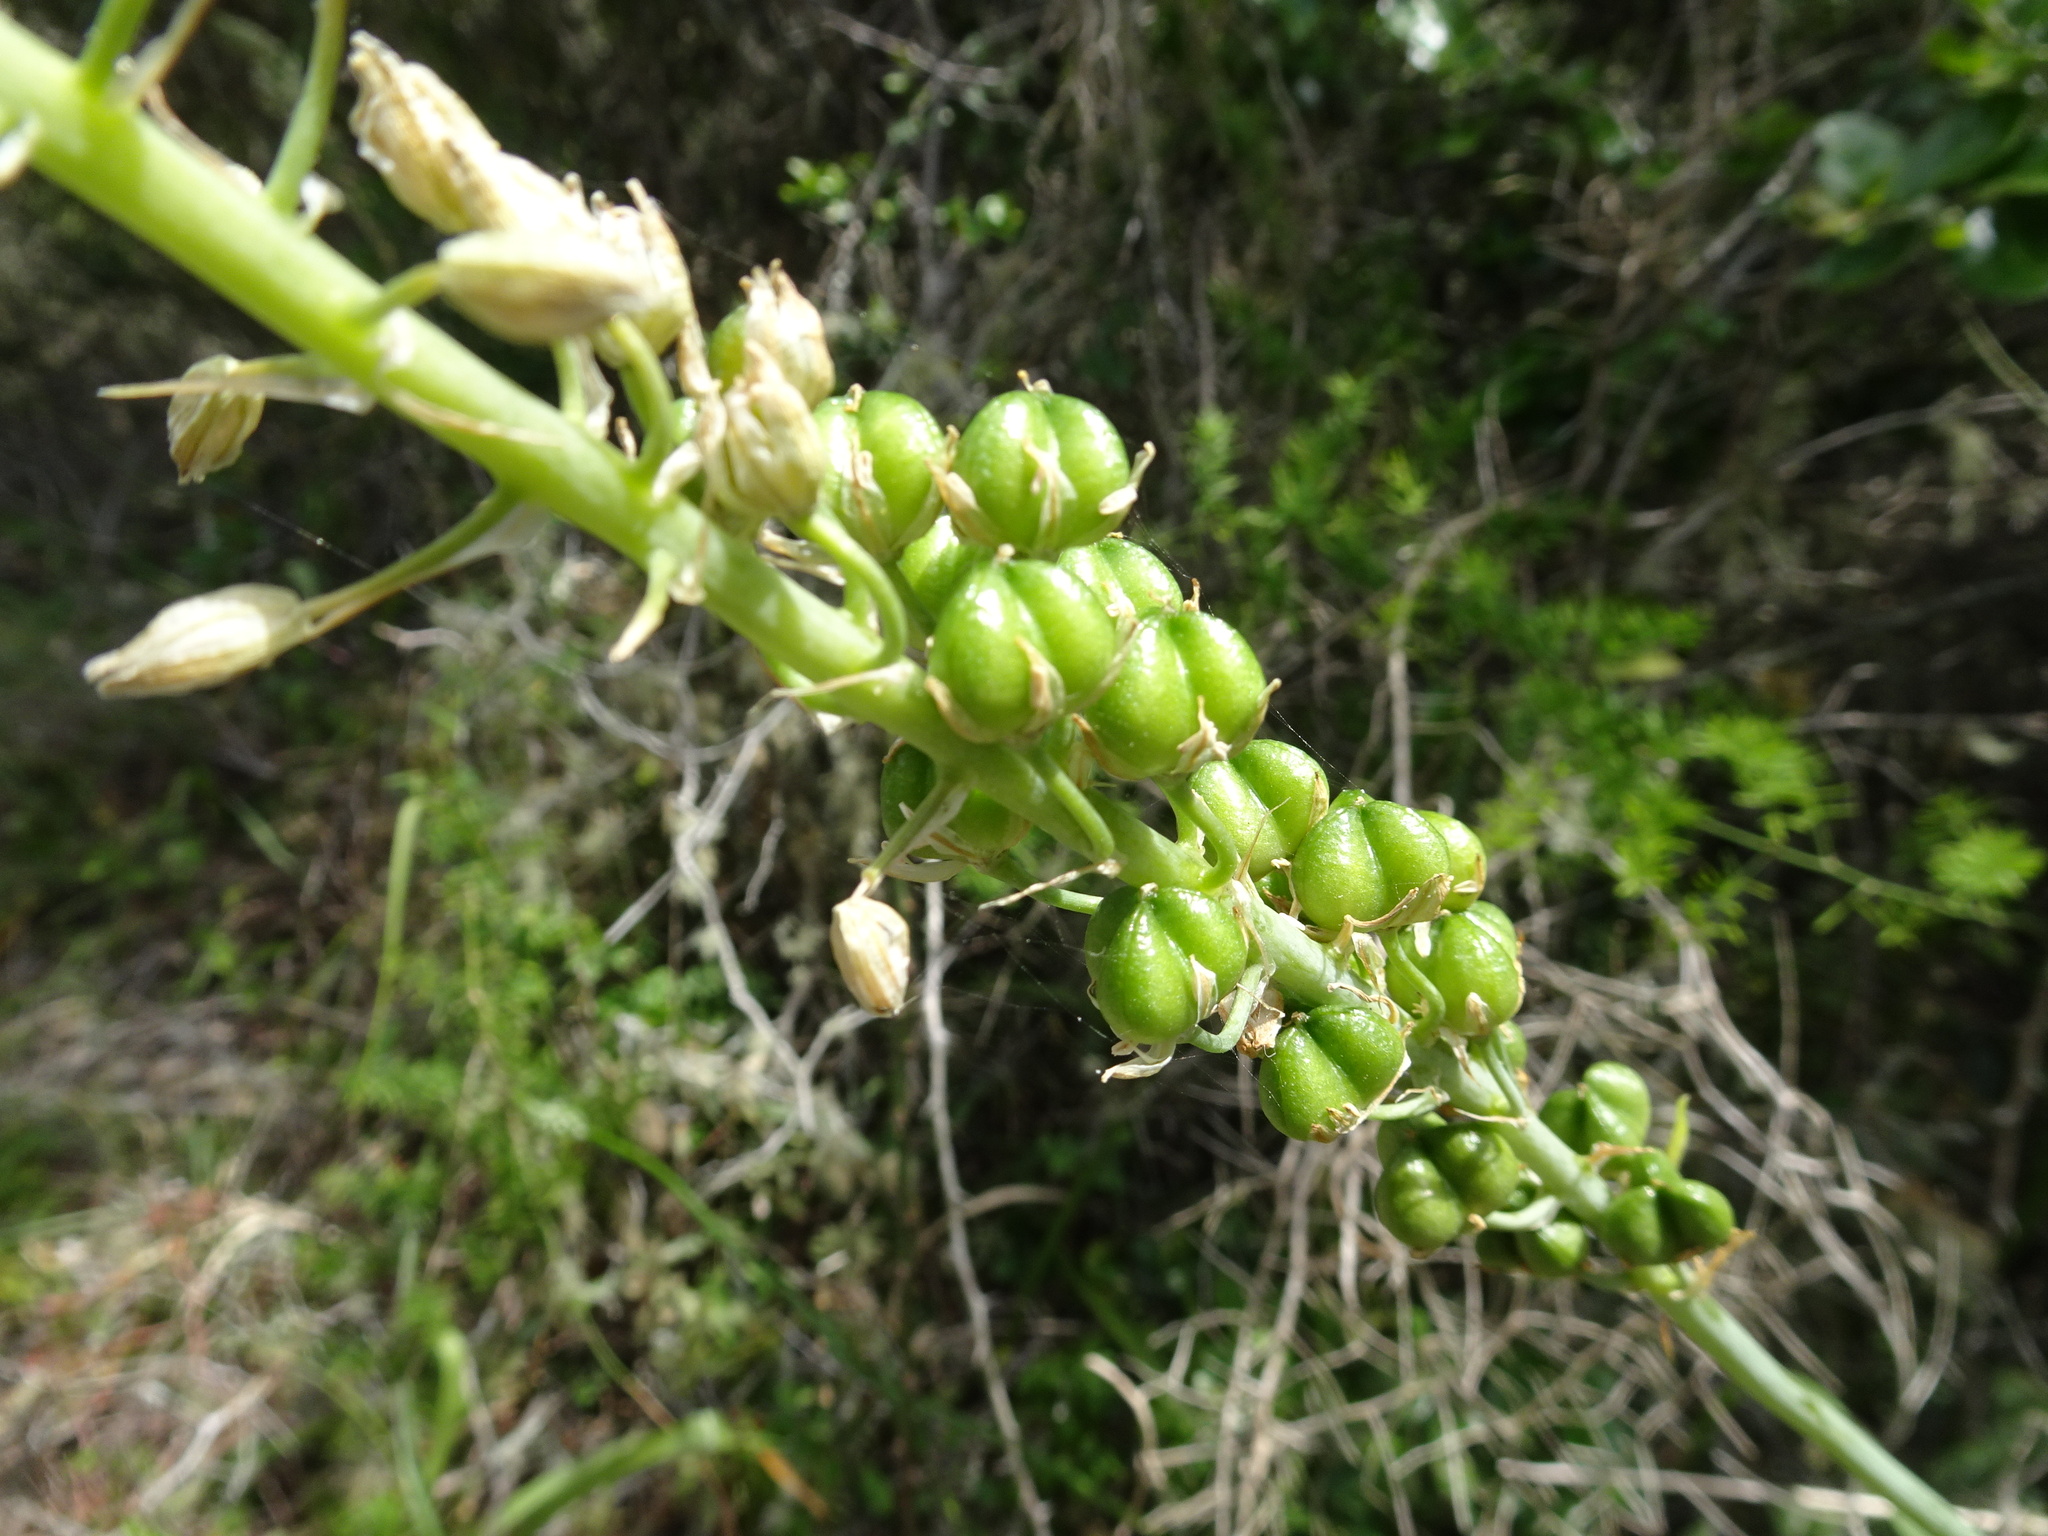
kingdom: Plantae
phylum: Tracheophyta
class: Liliopsida
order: Asparagales
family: Asparagaceae
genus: Albuca
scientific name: Albuca bracteata
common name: Sea-onion
